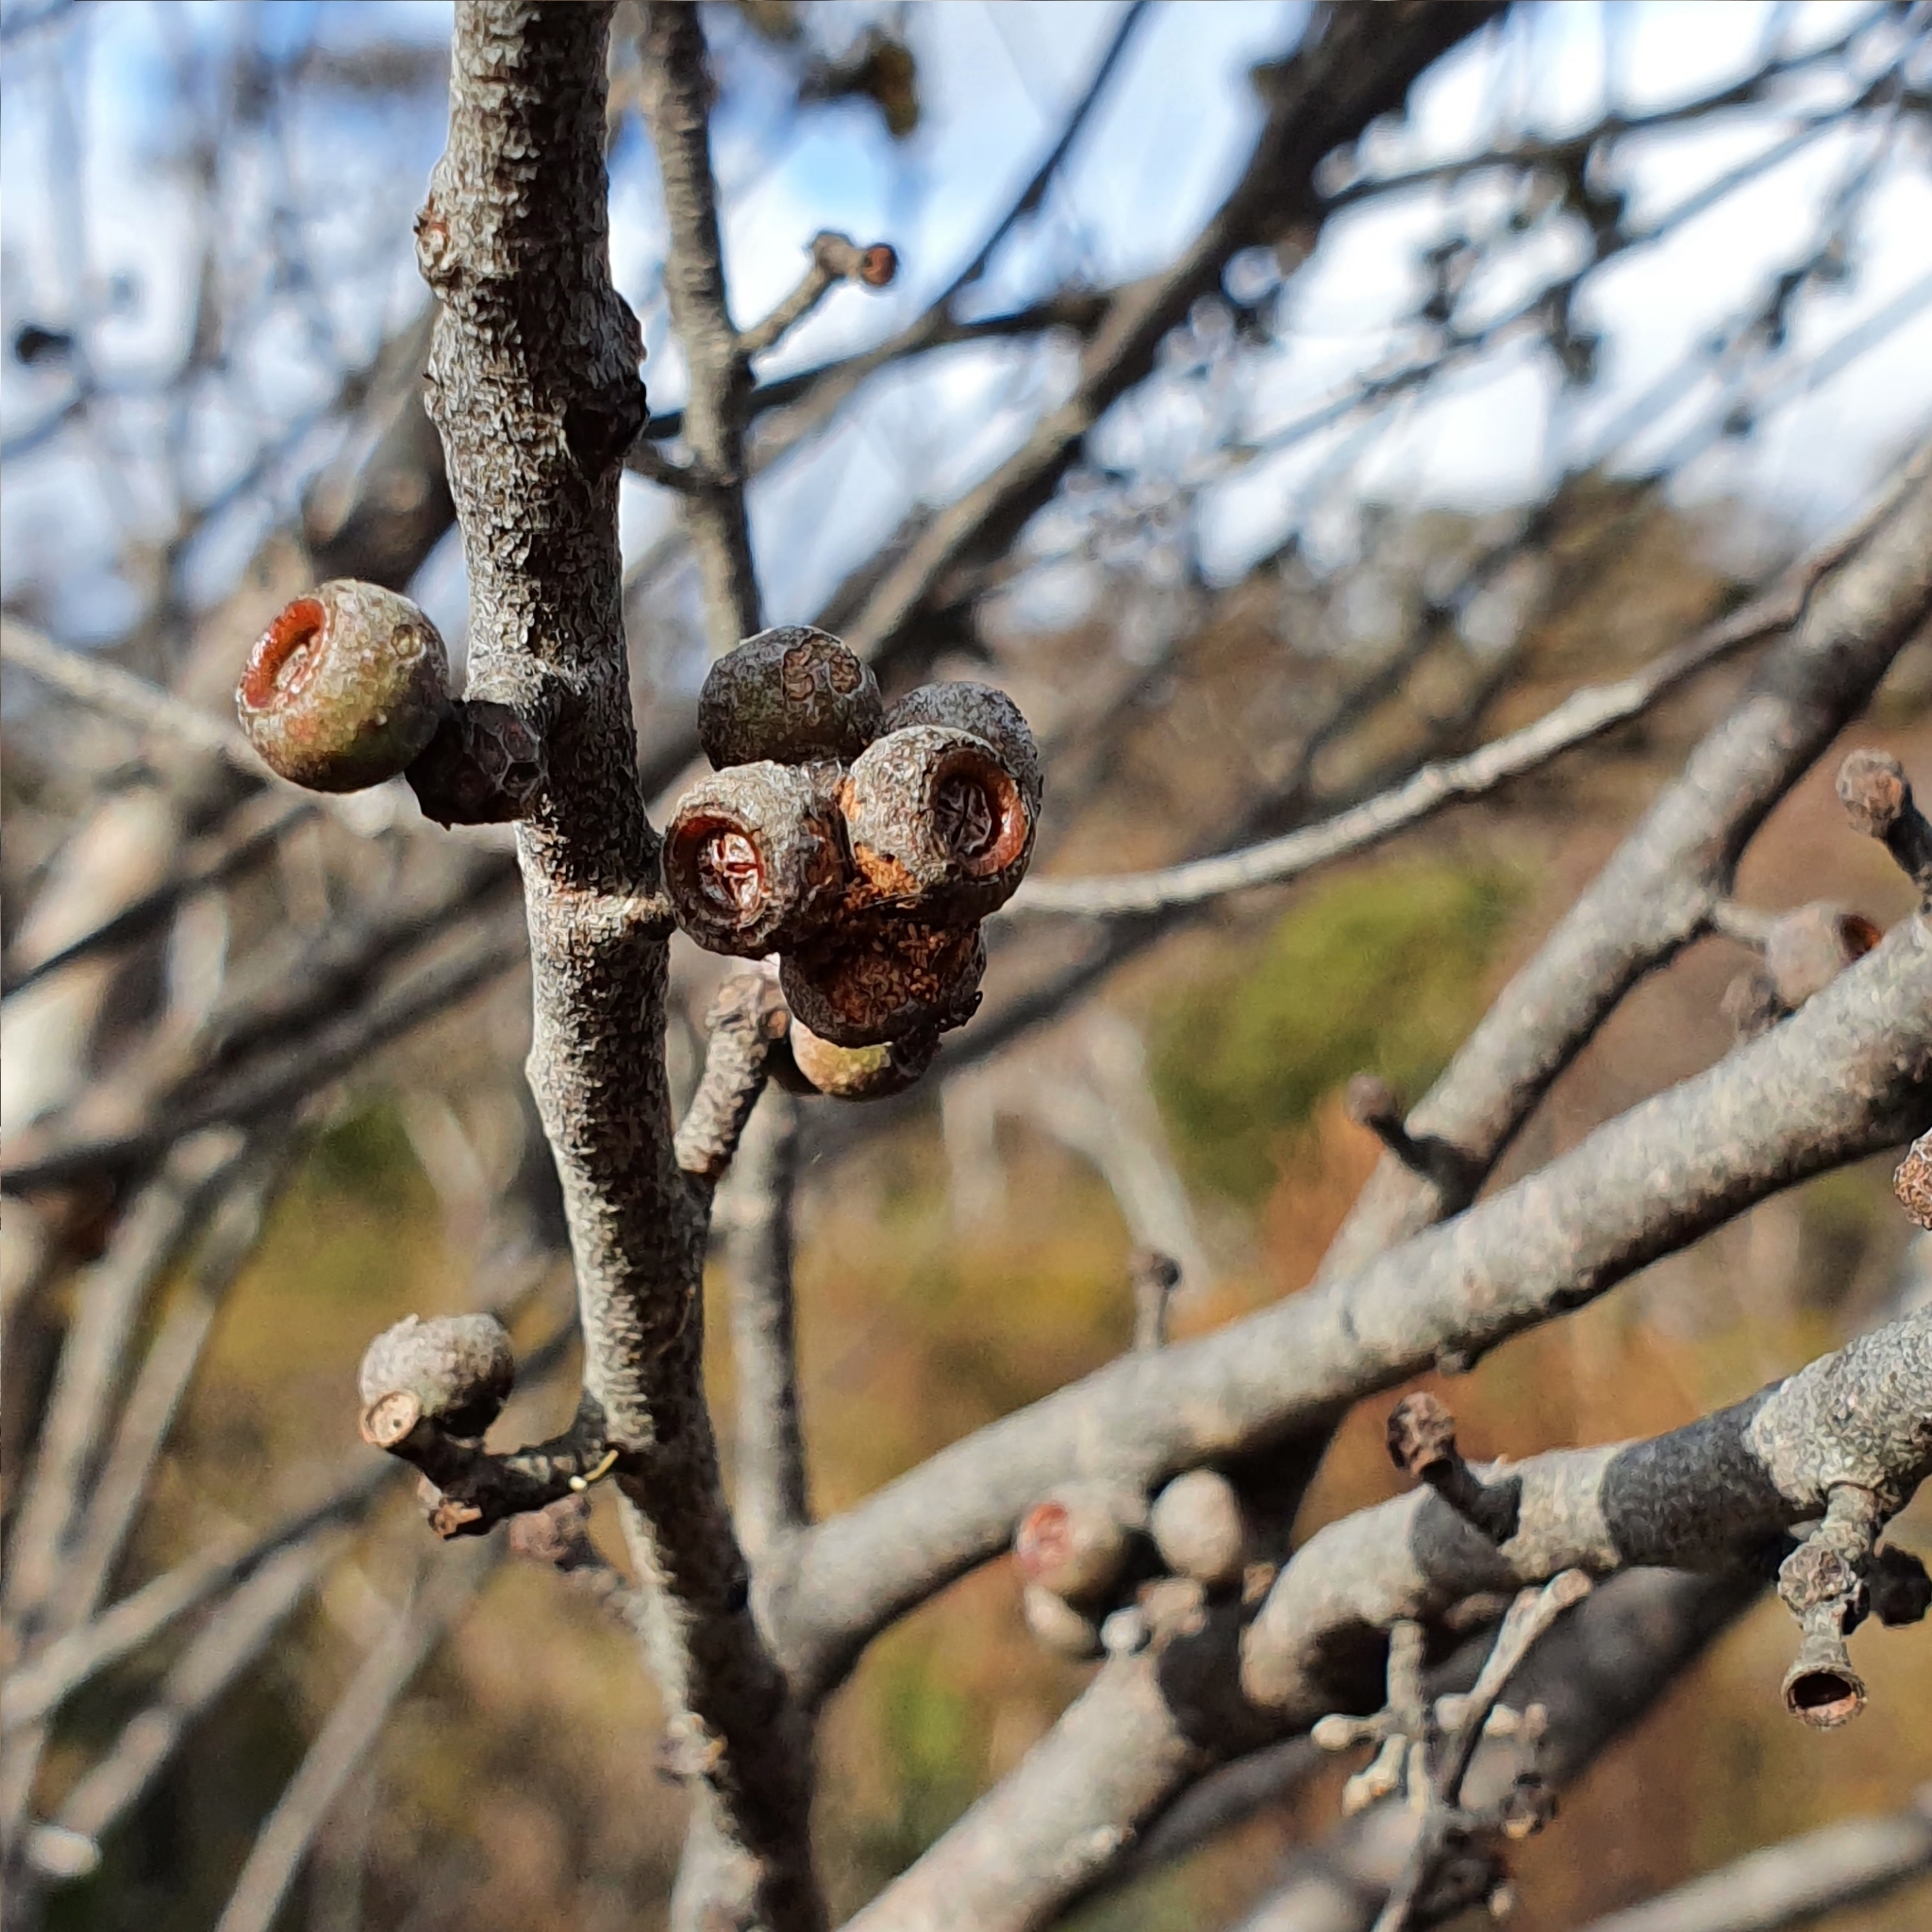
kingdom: Plantae
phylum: Tracheophyta
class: Magnoliopsida
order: Myrtales
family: Myrtaceae
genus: Eucalyptus
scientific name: Eucalyptus ligustrina
